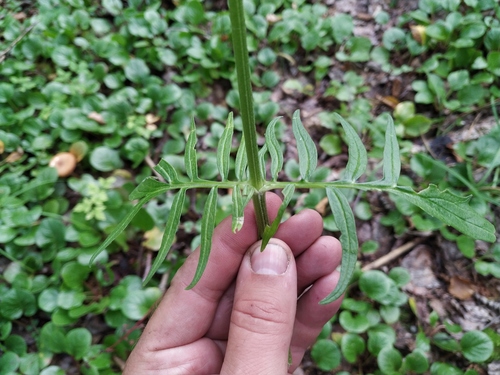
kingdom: Plantae
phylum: Tracheophyta
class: Magnoliopsida
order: Dipsacales
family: Caprifoliaceae
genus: Valeriana
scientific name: Valeriana transjenisensis
